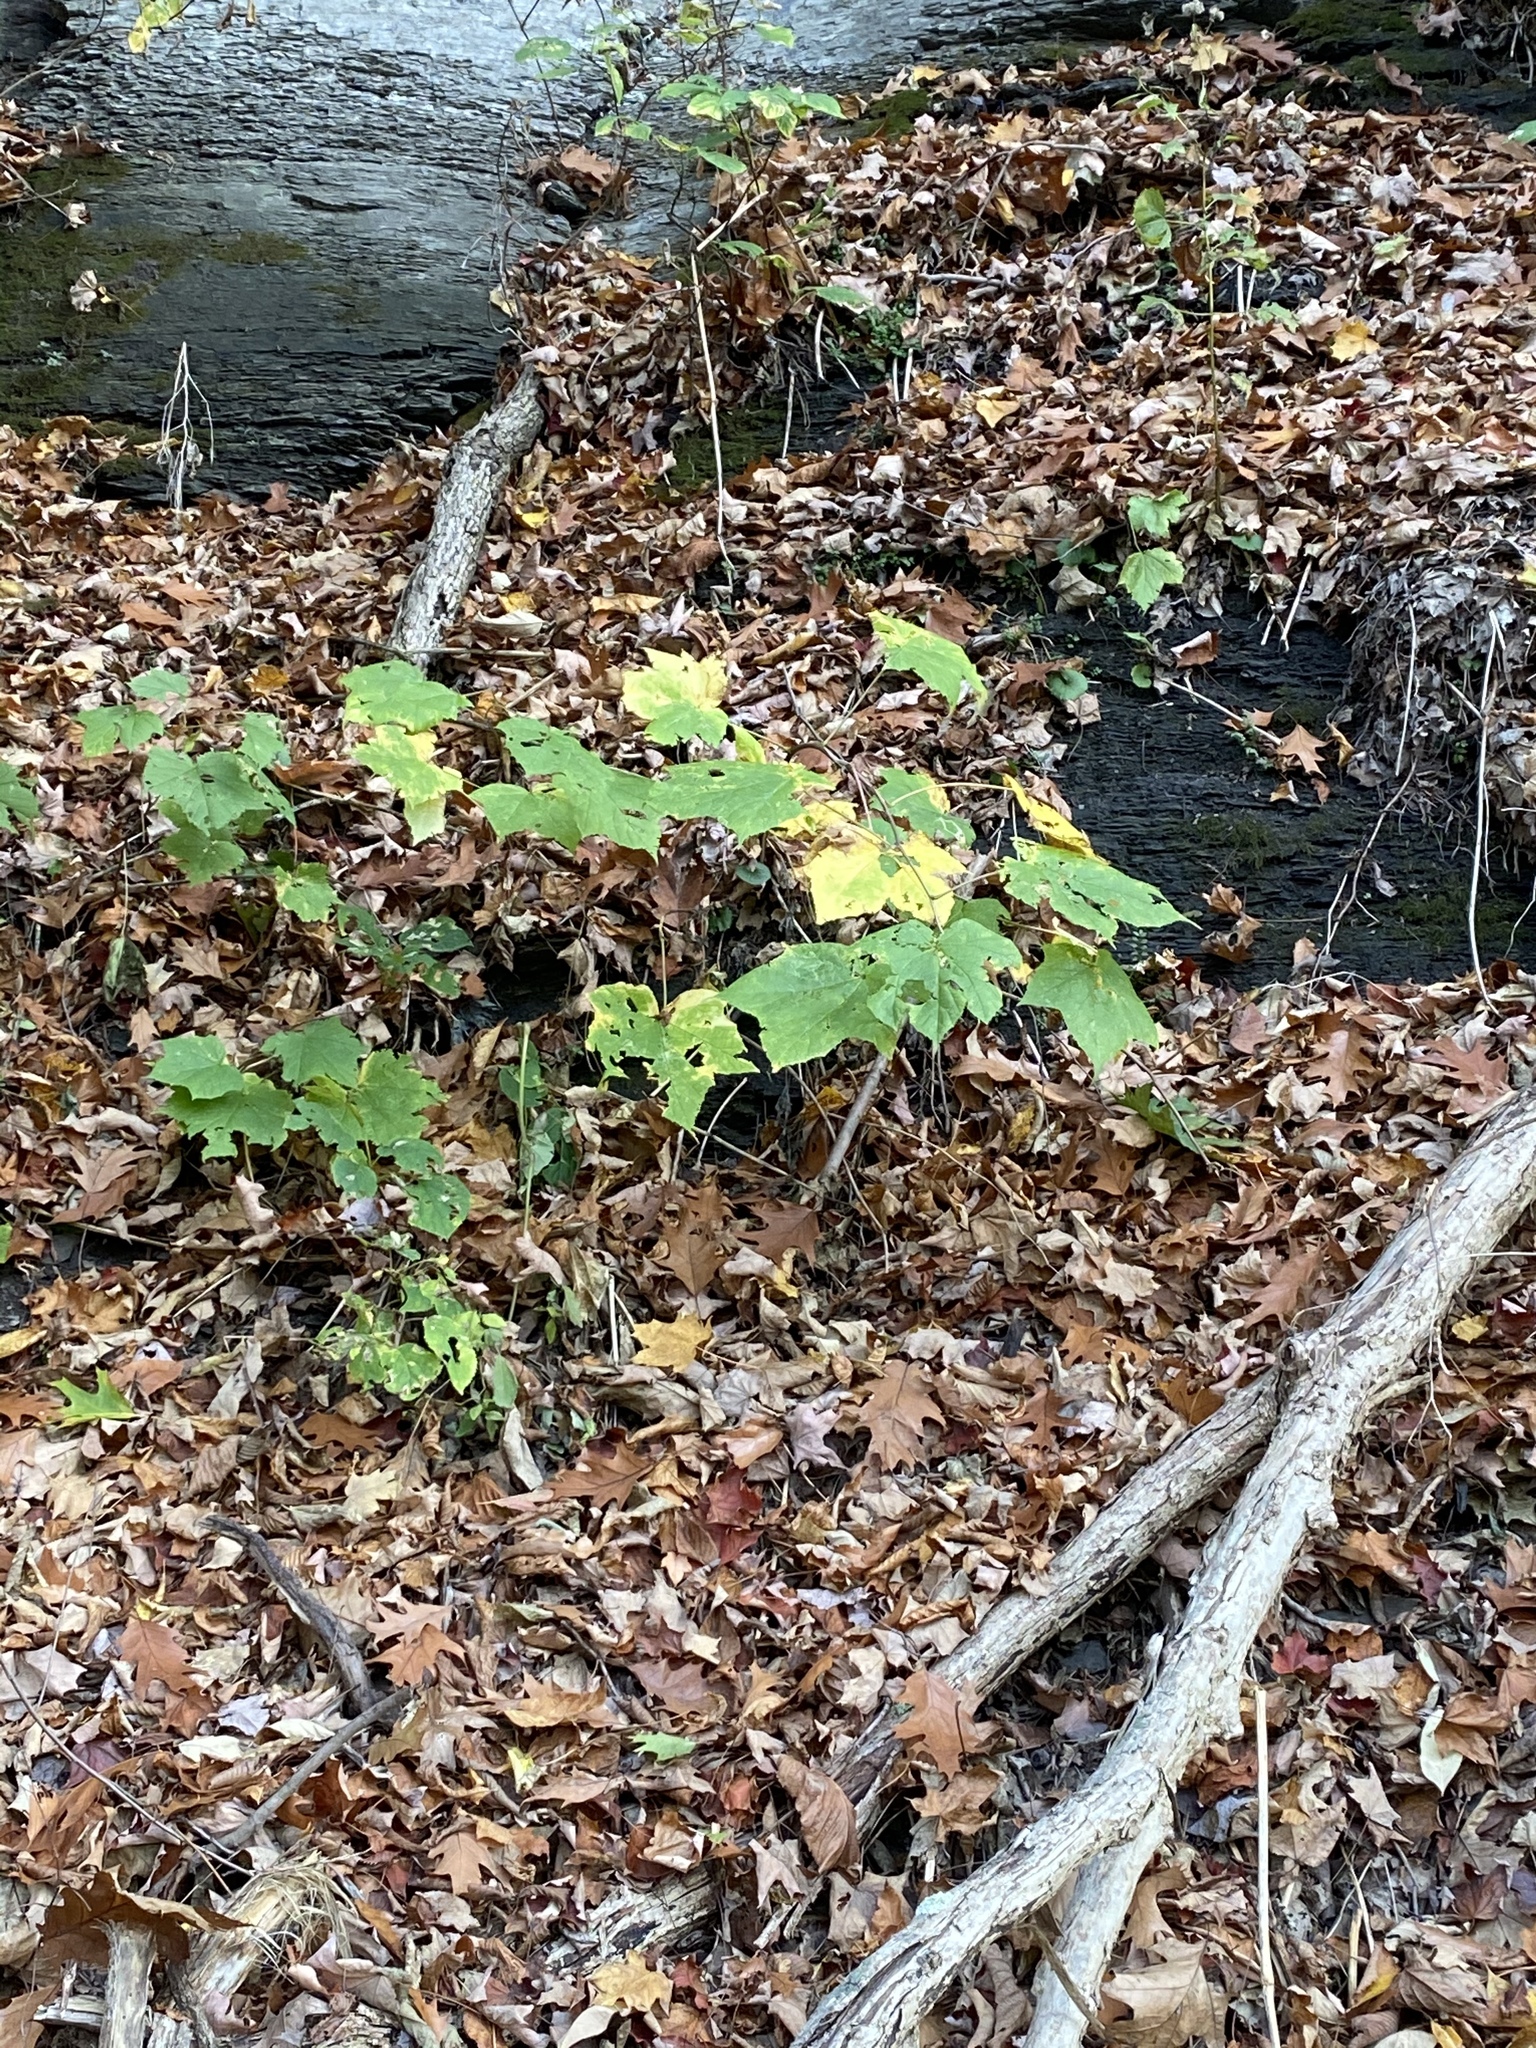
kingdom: Plantae
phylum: Tracheophyta
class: Magnoliopsida
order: Rosales
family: Rosaceae
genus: Rubus
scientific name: Rubus odoratus
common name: Purple-flowered raspberry
